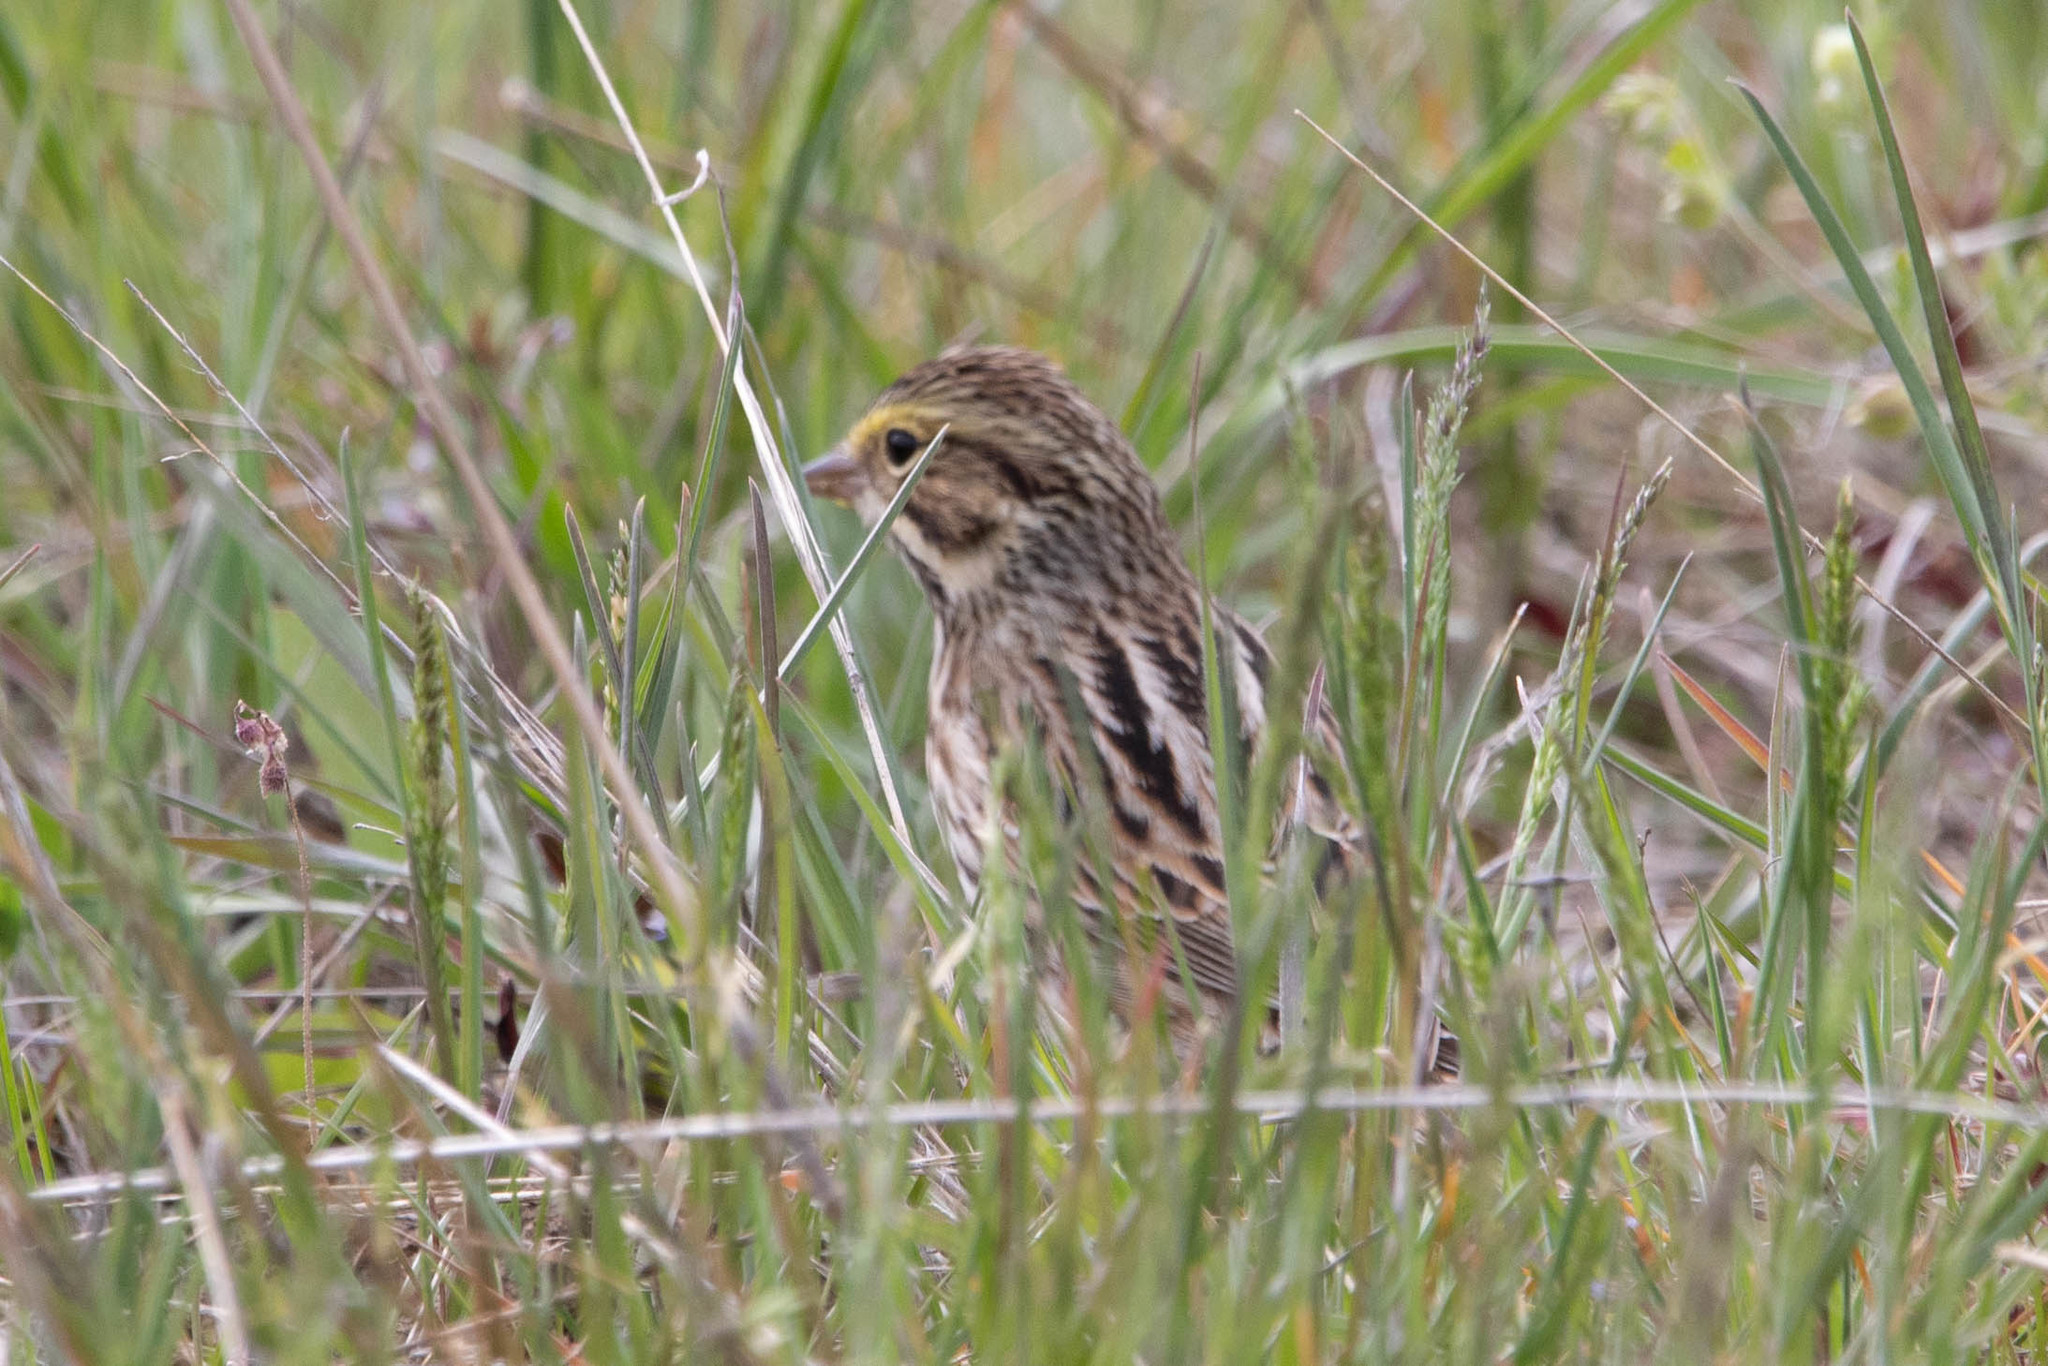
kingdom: Animalia
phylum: Chordata
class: Aves
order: Passeriformes
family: Passerellidae
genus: Passerculus
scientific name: Passerculus sandwichensis
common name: Savannah sparrow
